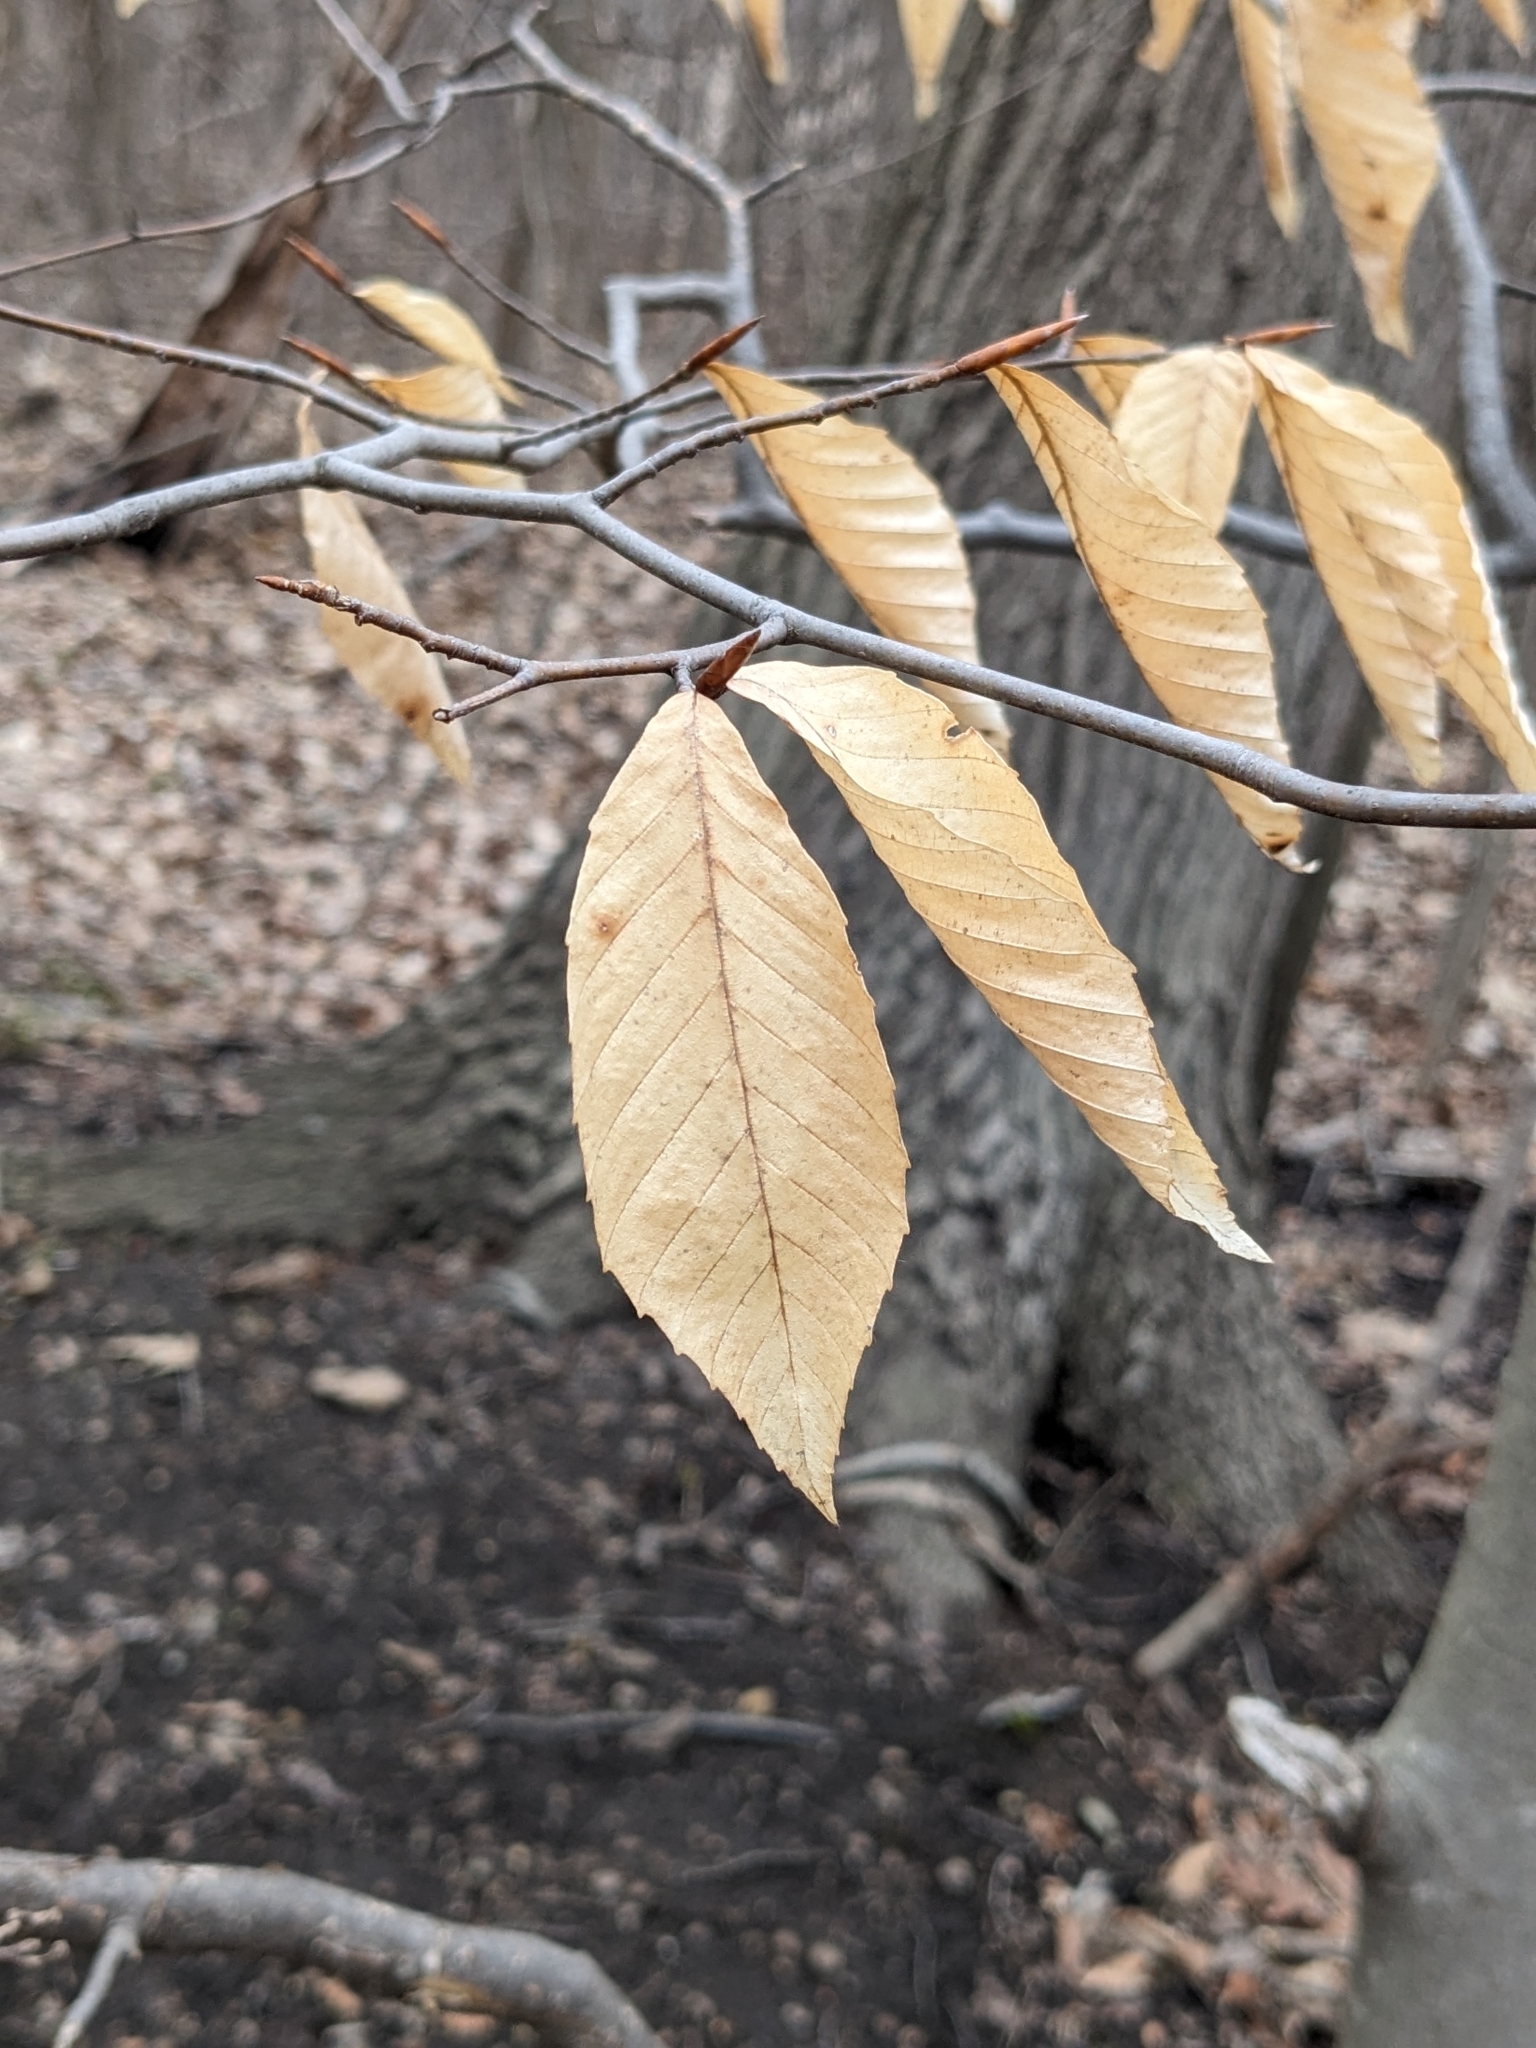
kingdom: Plantae
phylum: Tracheophyta
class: Magnoliopsida
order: Fagales
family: Fagaceae
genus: Fagus
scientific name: Fagus grandifolia
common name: American beech
